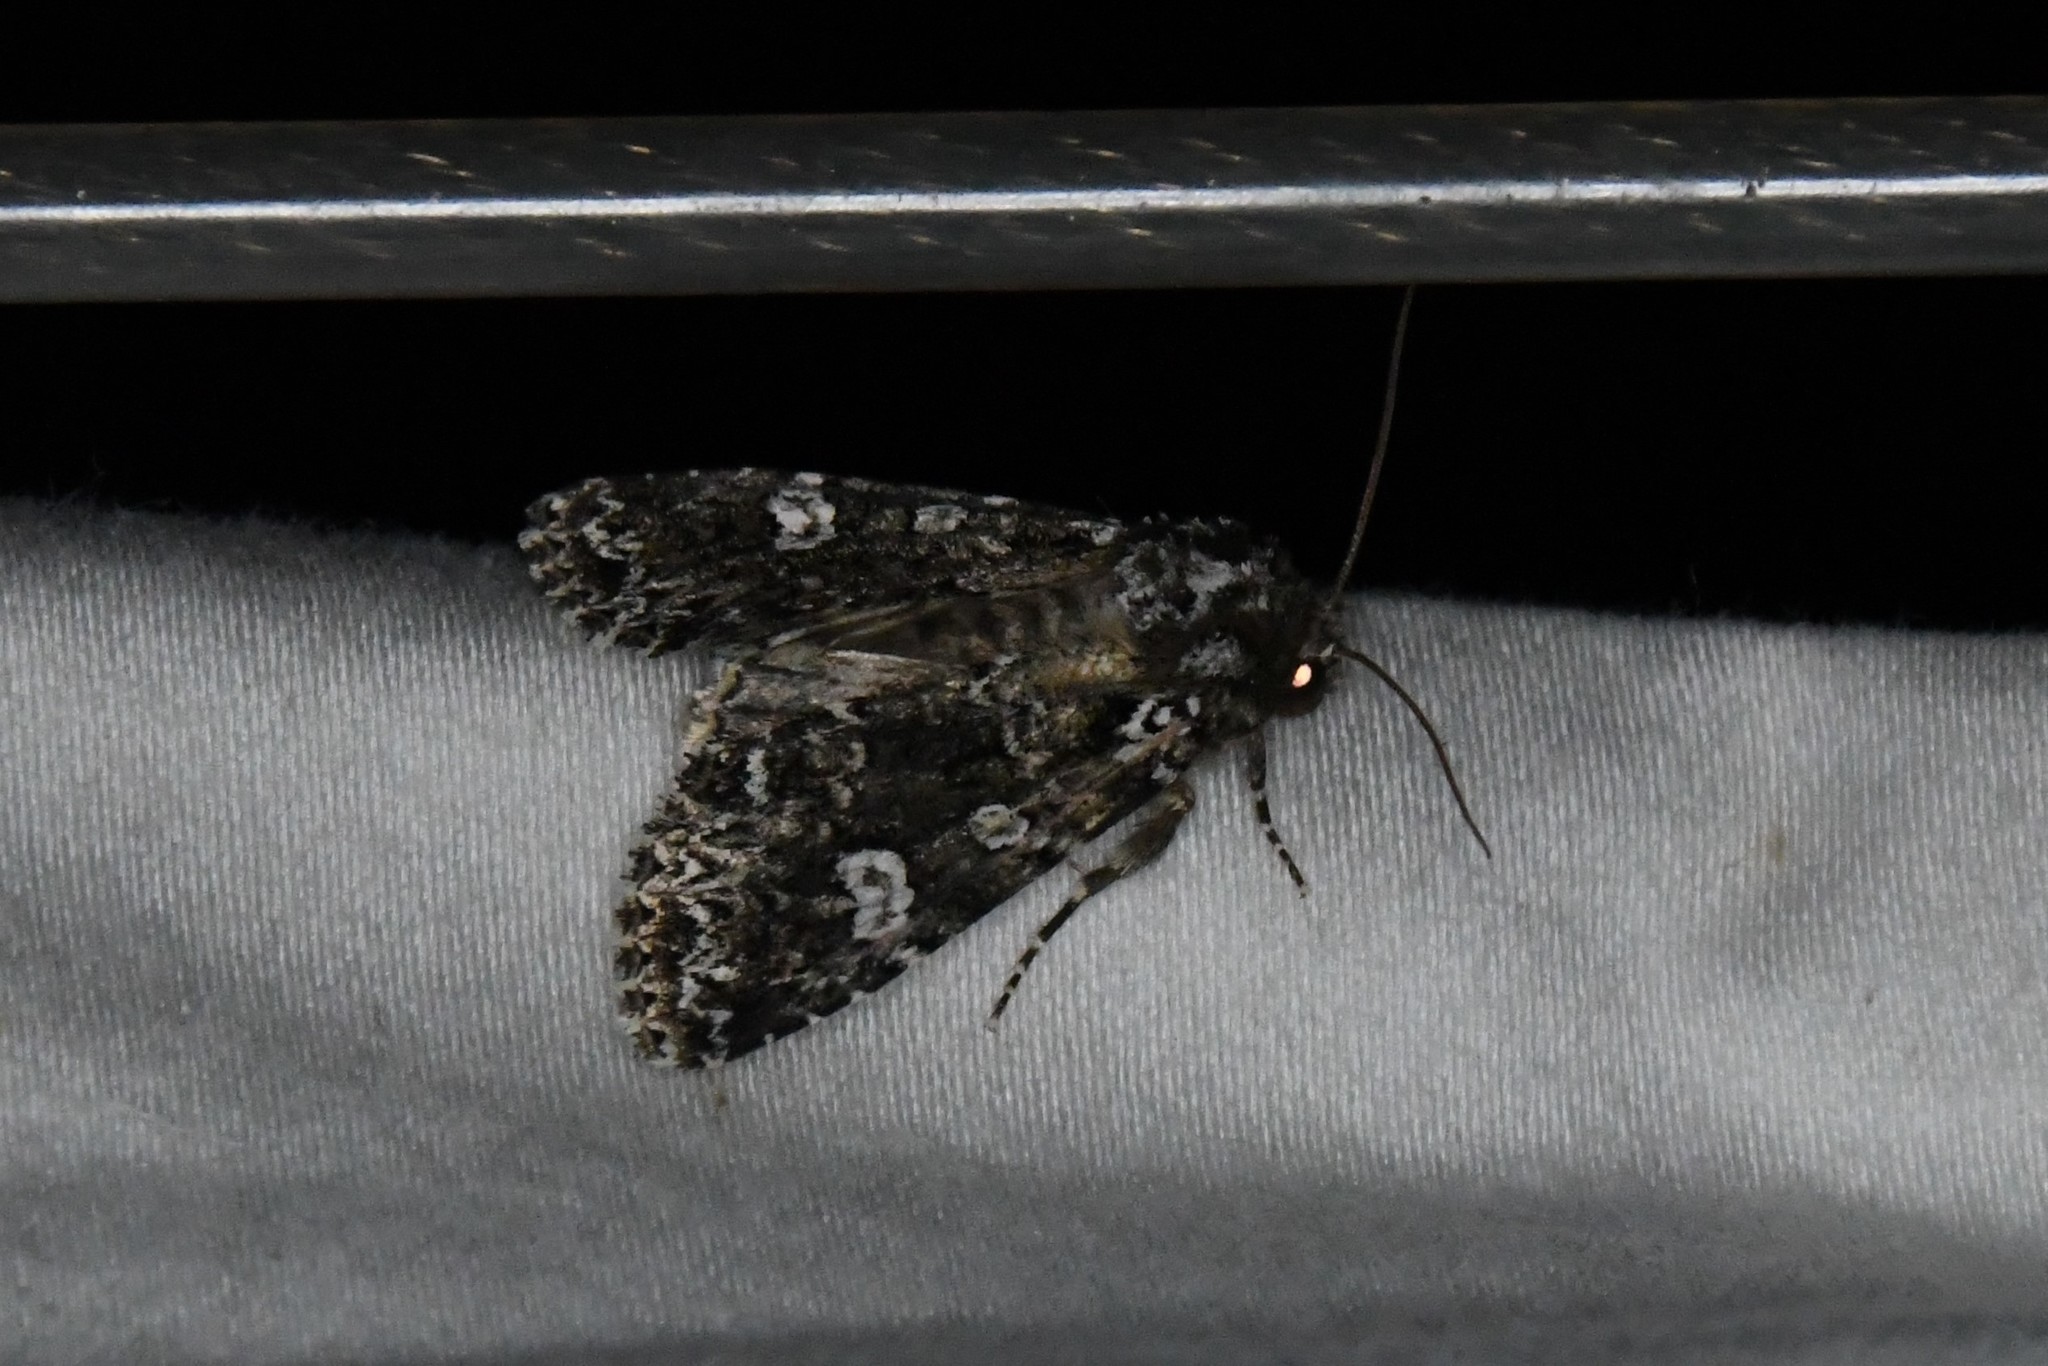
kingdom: Animalia
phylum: Arthropoda
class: Insecta
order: Lepidoptera
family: Noctuidae
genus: Melanchra
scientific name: Melanchra adjuncta
